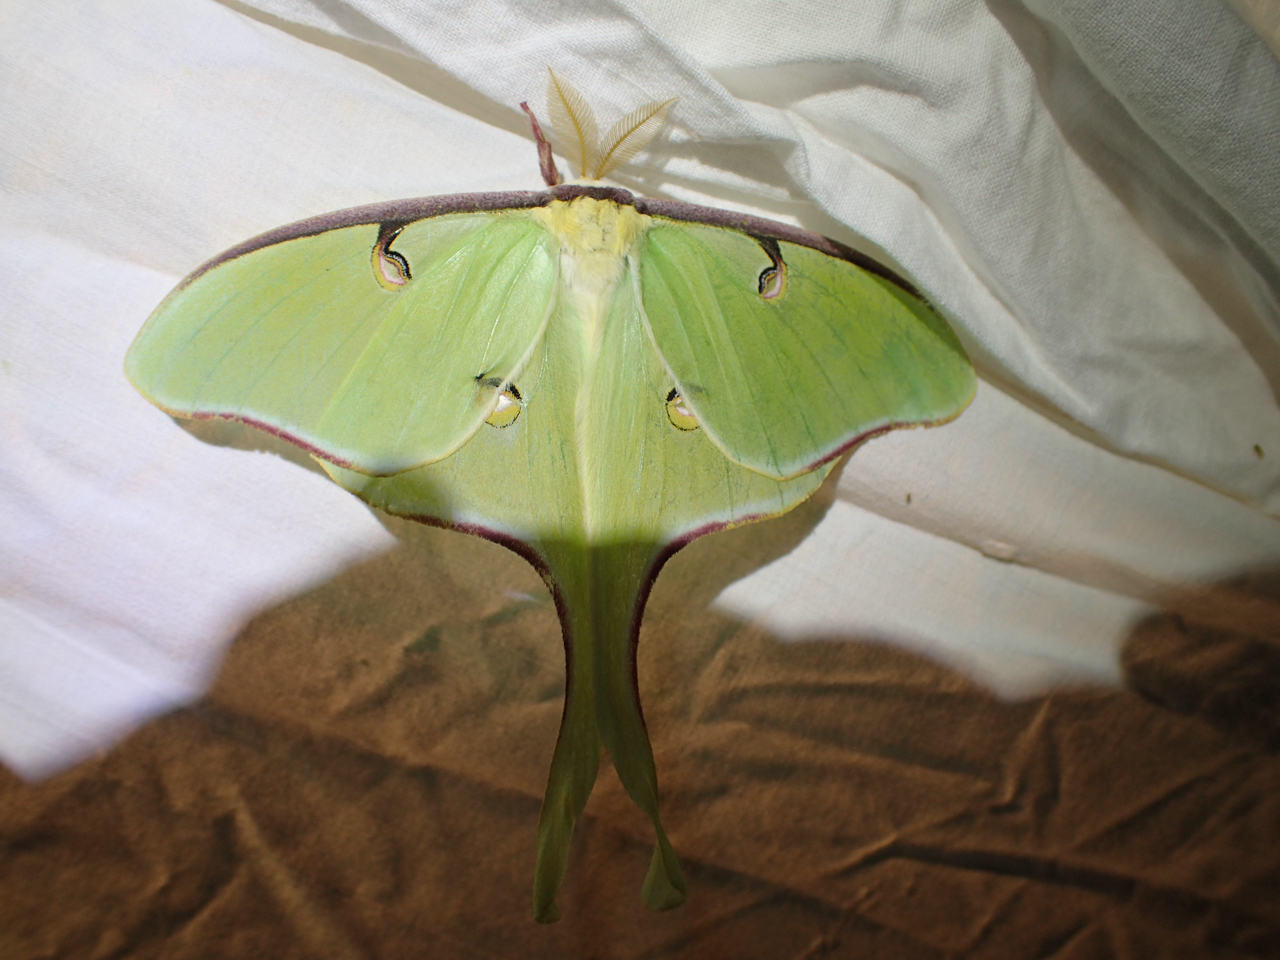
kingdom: Animalia
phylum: Arthropoda
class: Insecta
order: Lepidoptera
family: Saturniidae
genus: Actias
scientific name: Actias luna
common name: Luna moth
